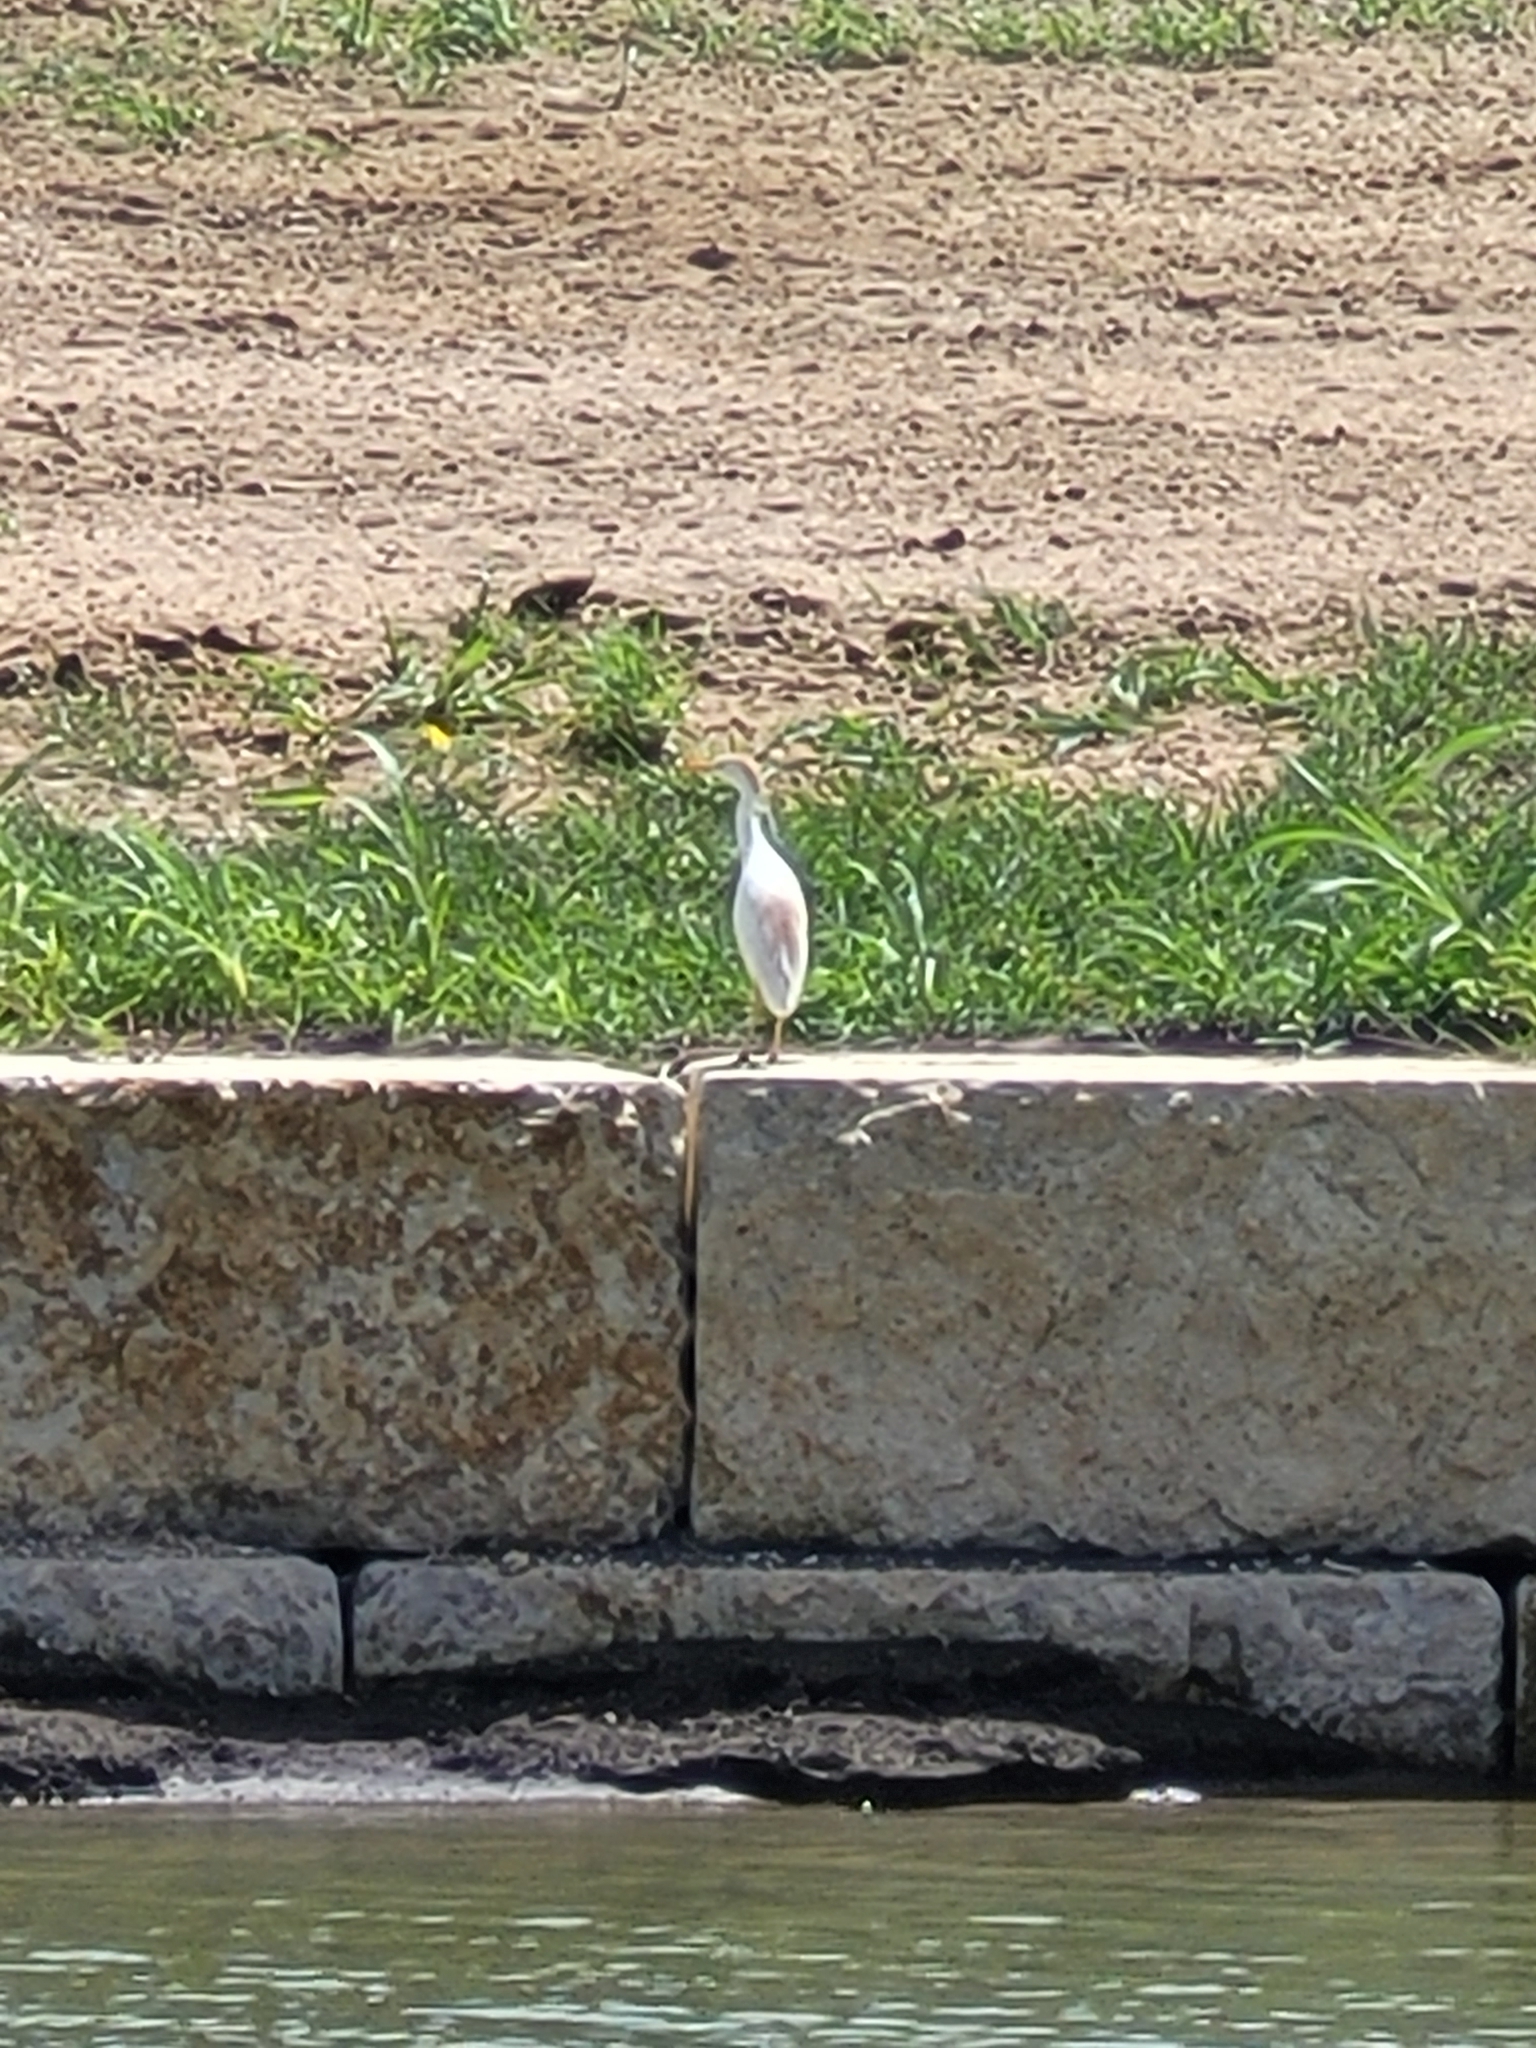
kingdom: Animalia
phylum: Chordata
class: Aves
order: Pelecaniformes
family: Ardeidae
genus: Bubulcus
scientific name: Bubulcus ibis
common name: Cattle egret
